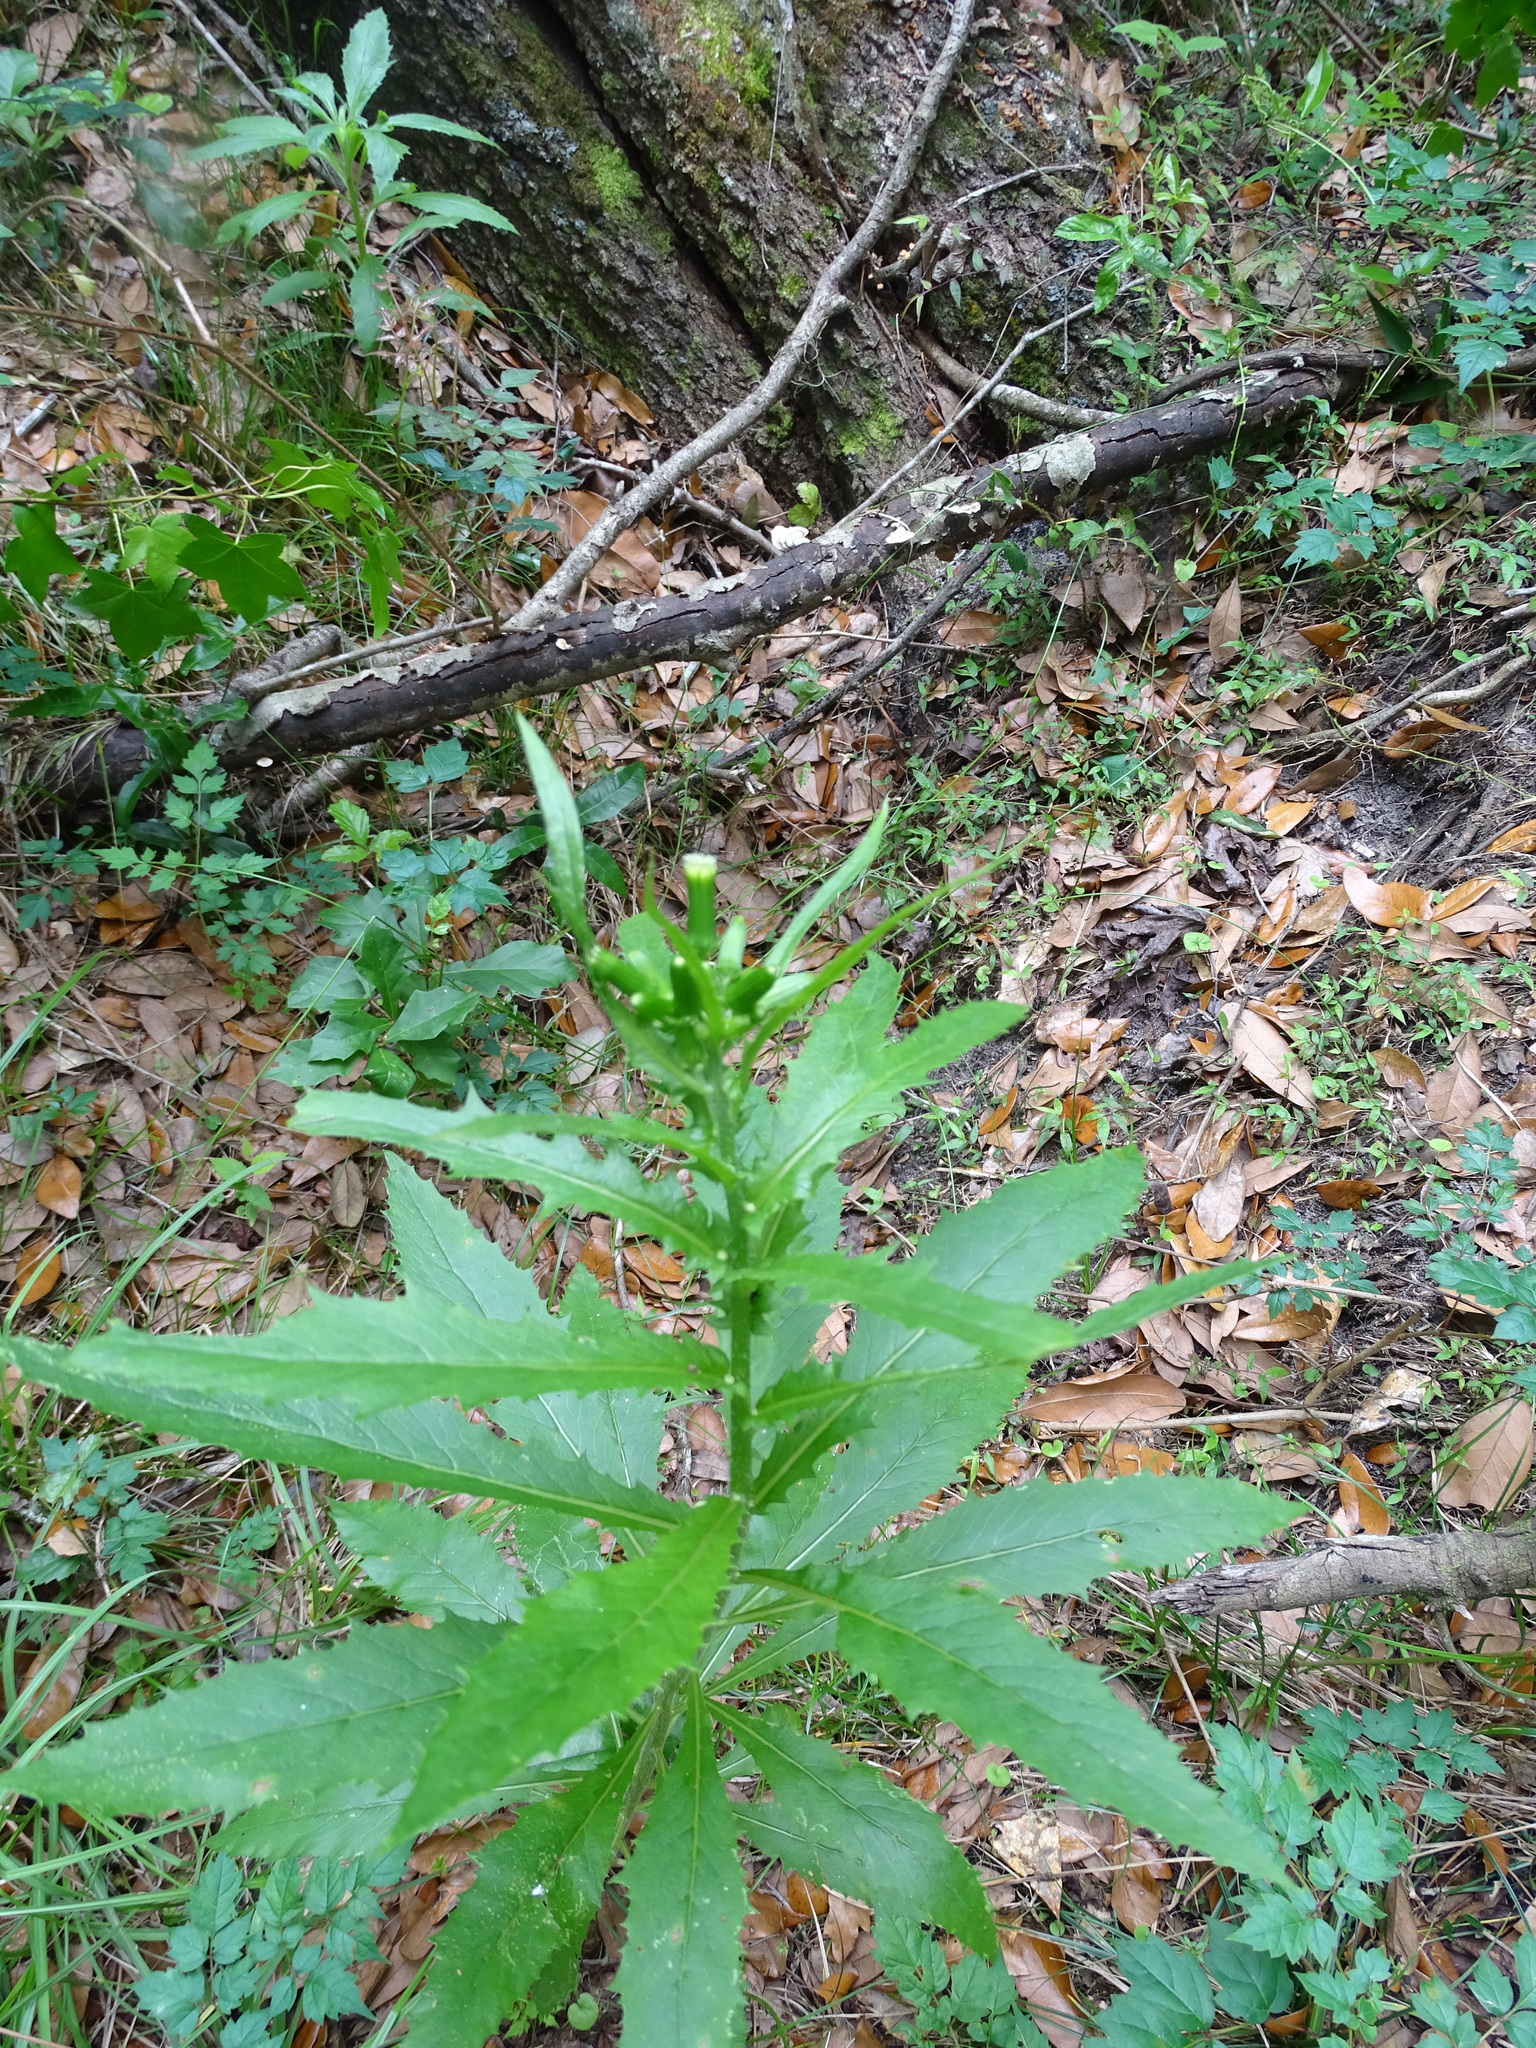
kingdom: Plantae
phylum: Tracheophyta
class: Magnoliopsida
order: Asterales
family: Asteraceae
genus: Erechtites
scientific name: Erechtites hieraciifolius
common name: American burnweed
